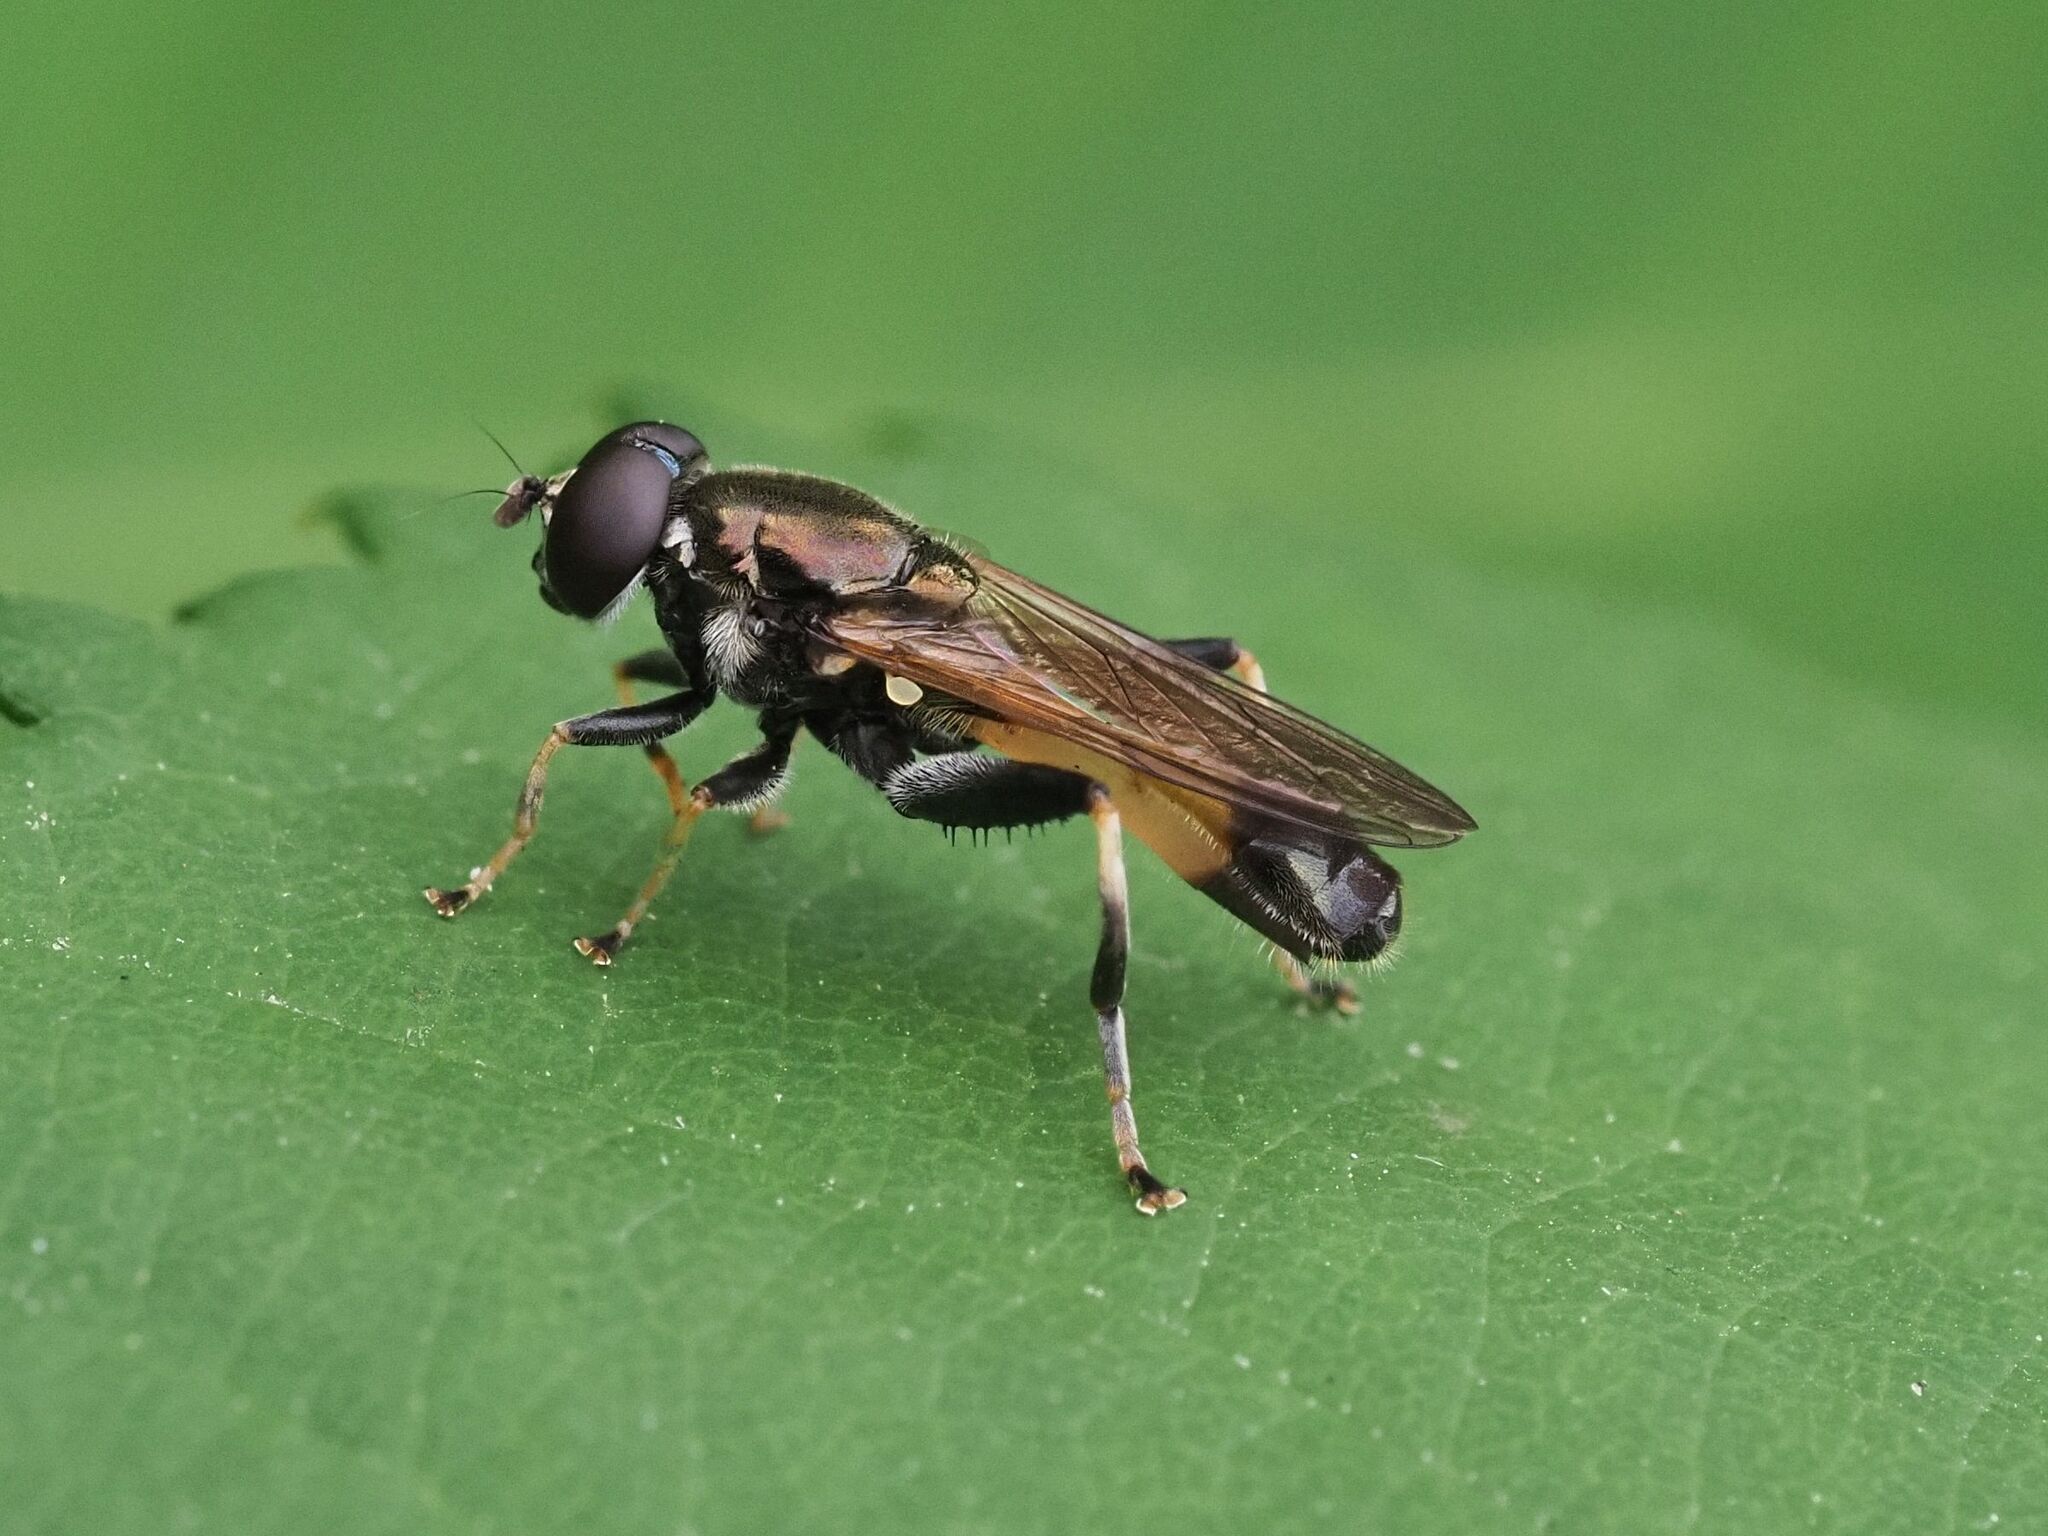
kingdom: Animalia
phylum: Arthropoda
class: Insecta
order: Diptera
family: Syrphidae
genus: Xylota
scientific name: Xylota segnis
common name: Brown-toed forest fly
